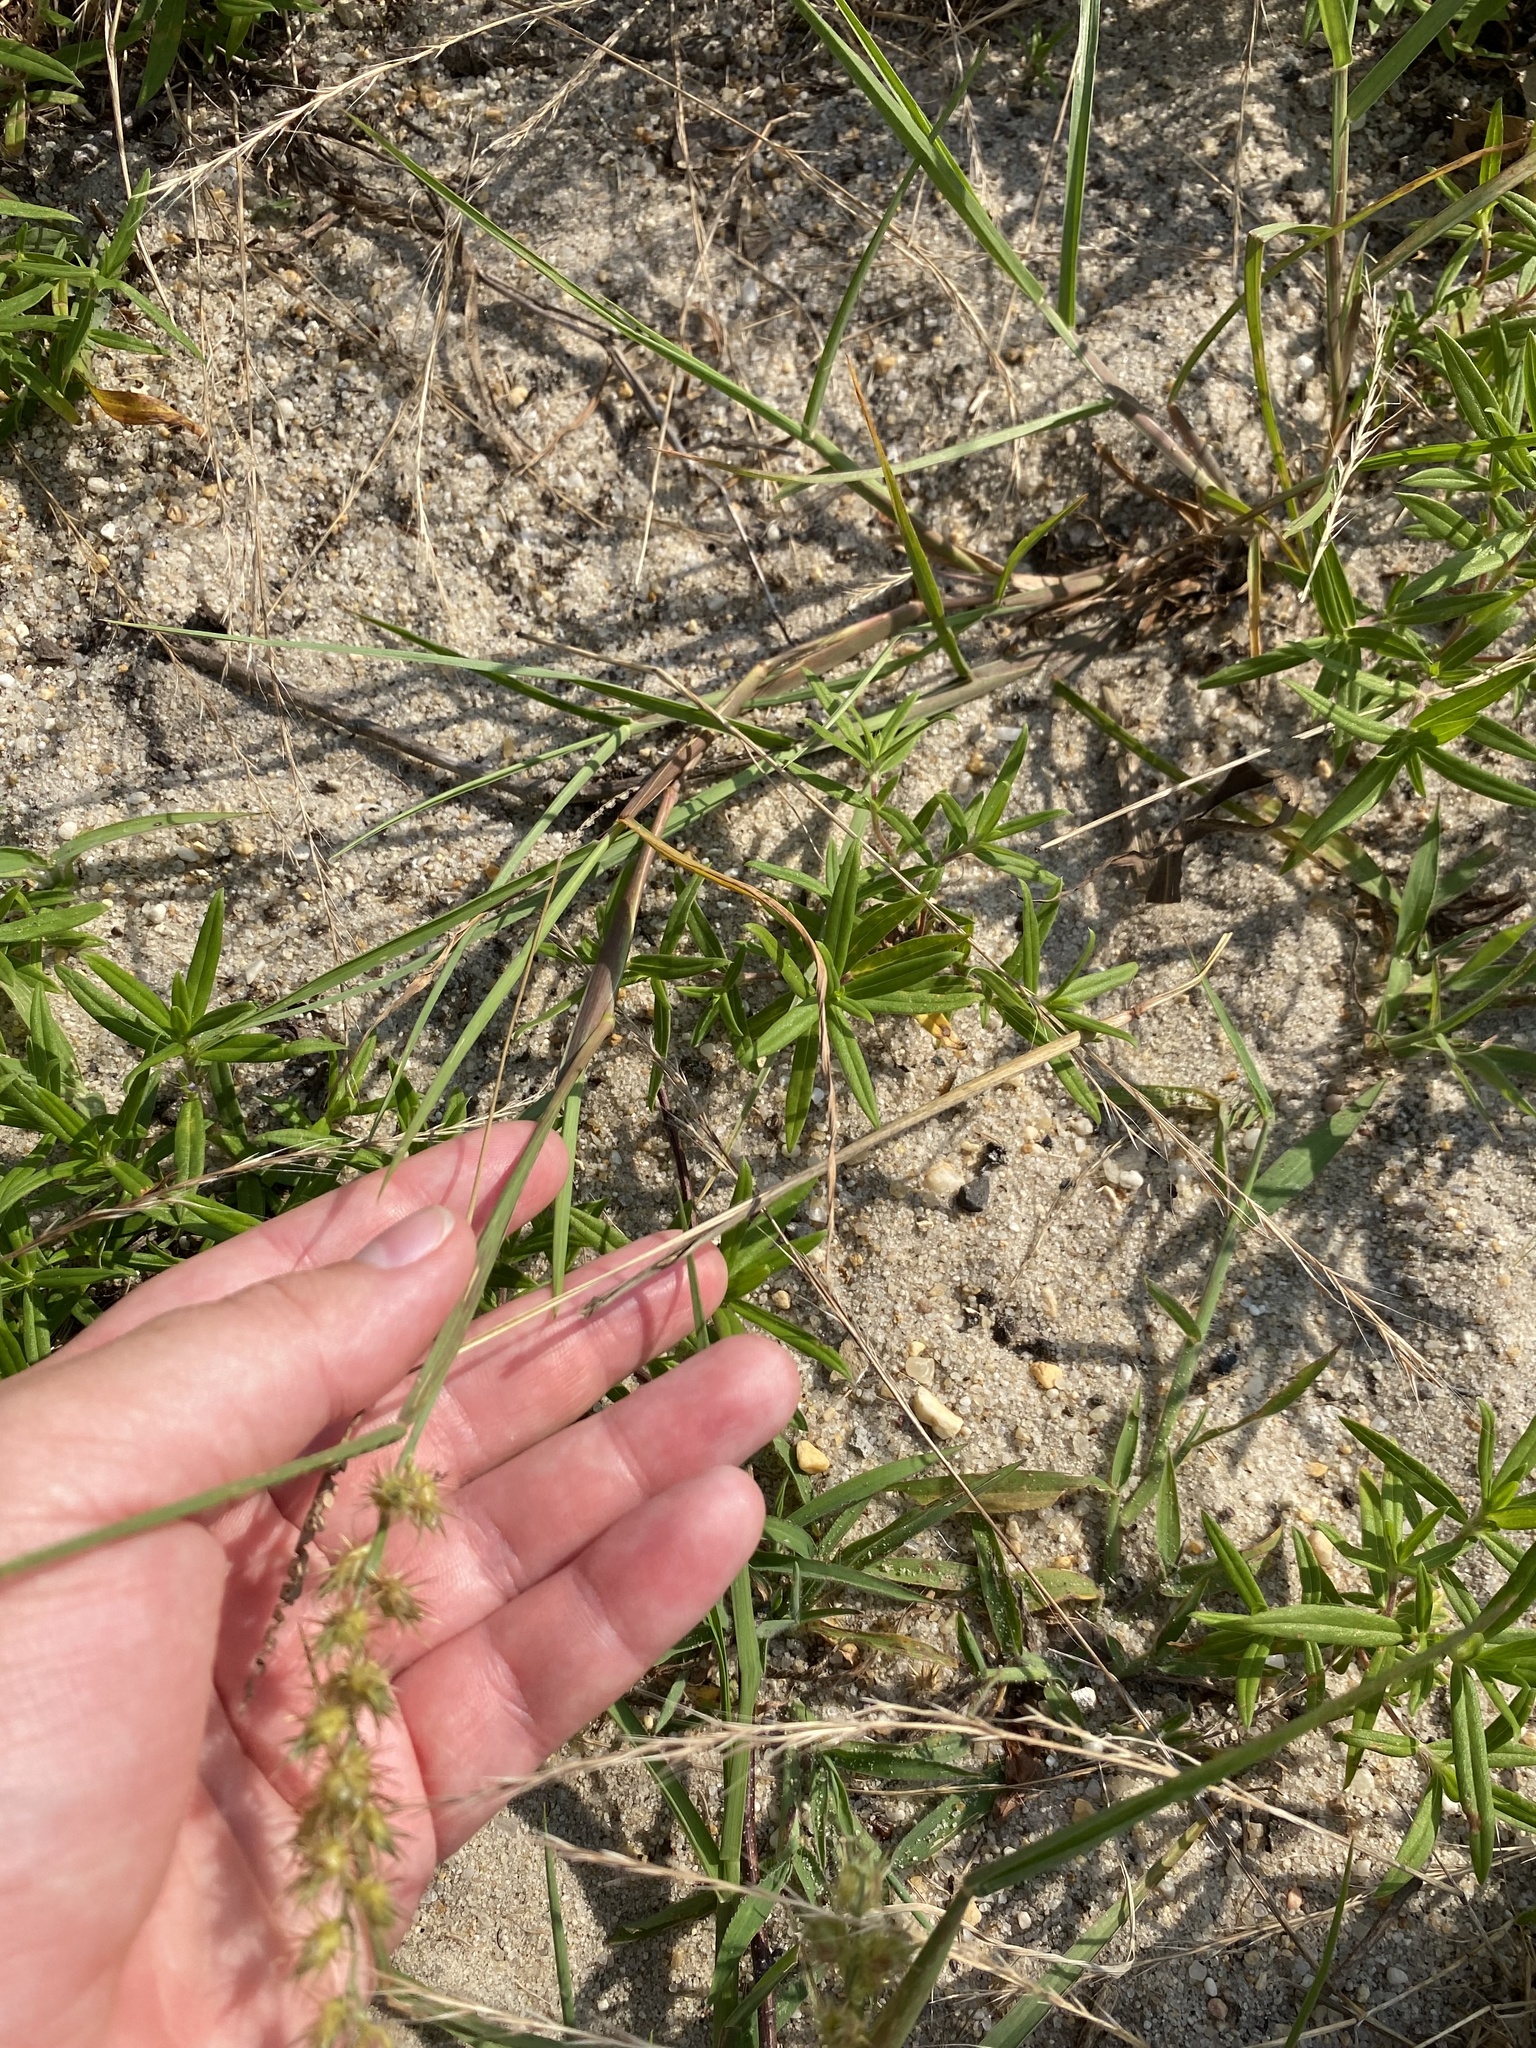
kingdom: Plantae
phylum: Tracheophyta
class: Liliopsida
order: Poales
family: Poaceae
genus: Cenchrus
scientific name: Cenchrus longispinus
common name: Mat sandbur
